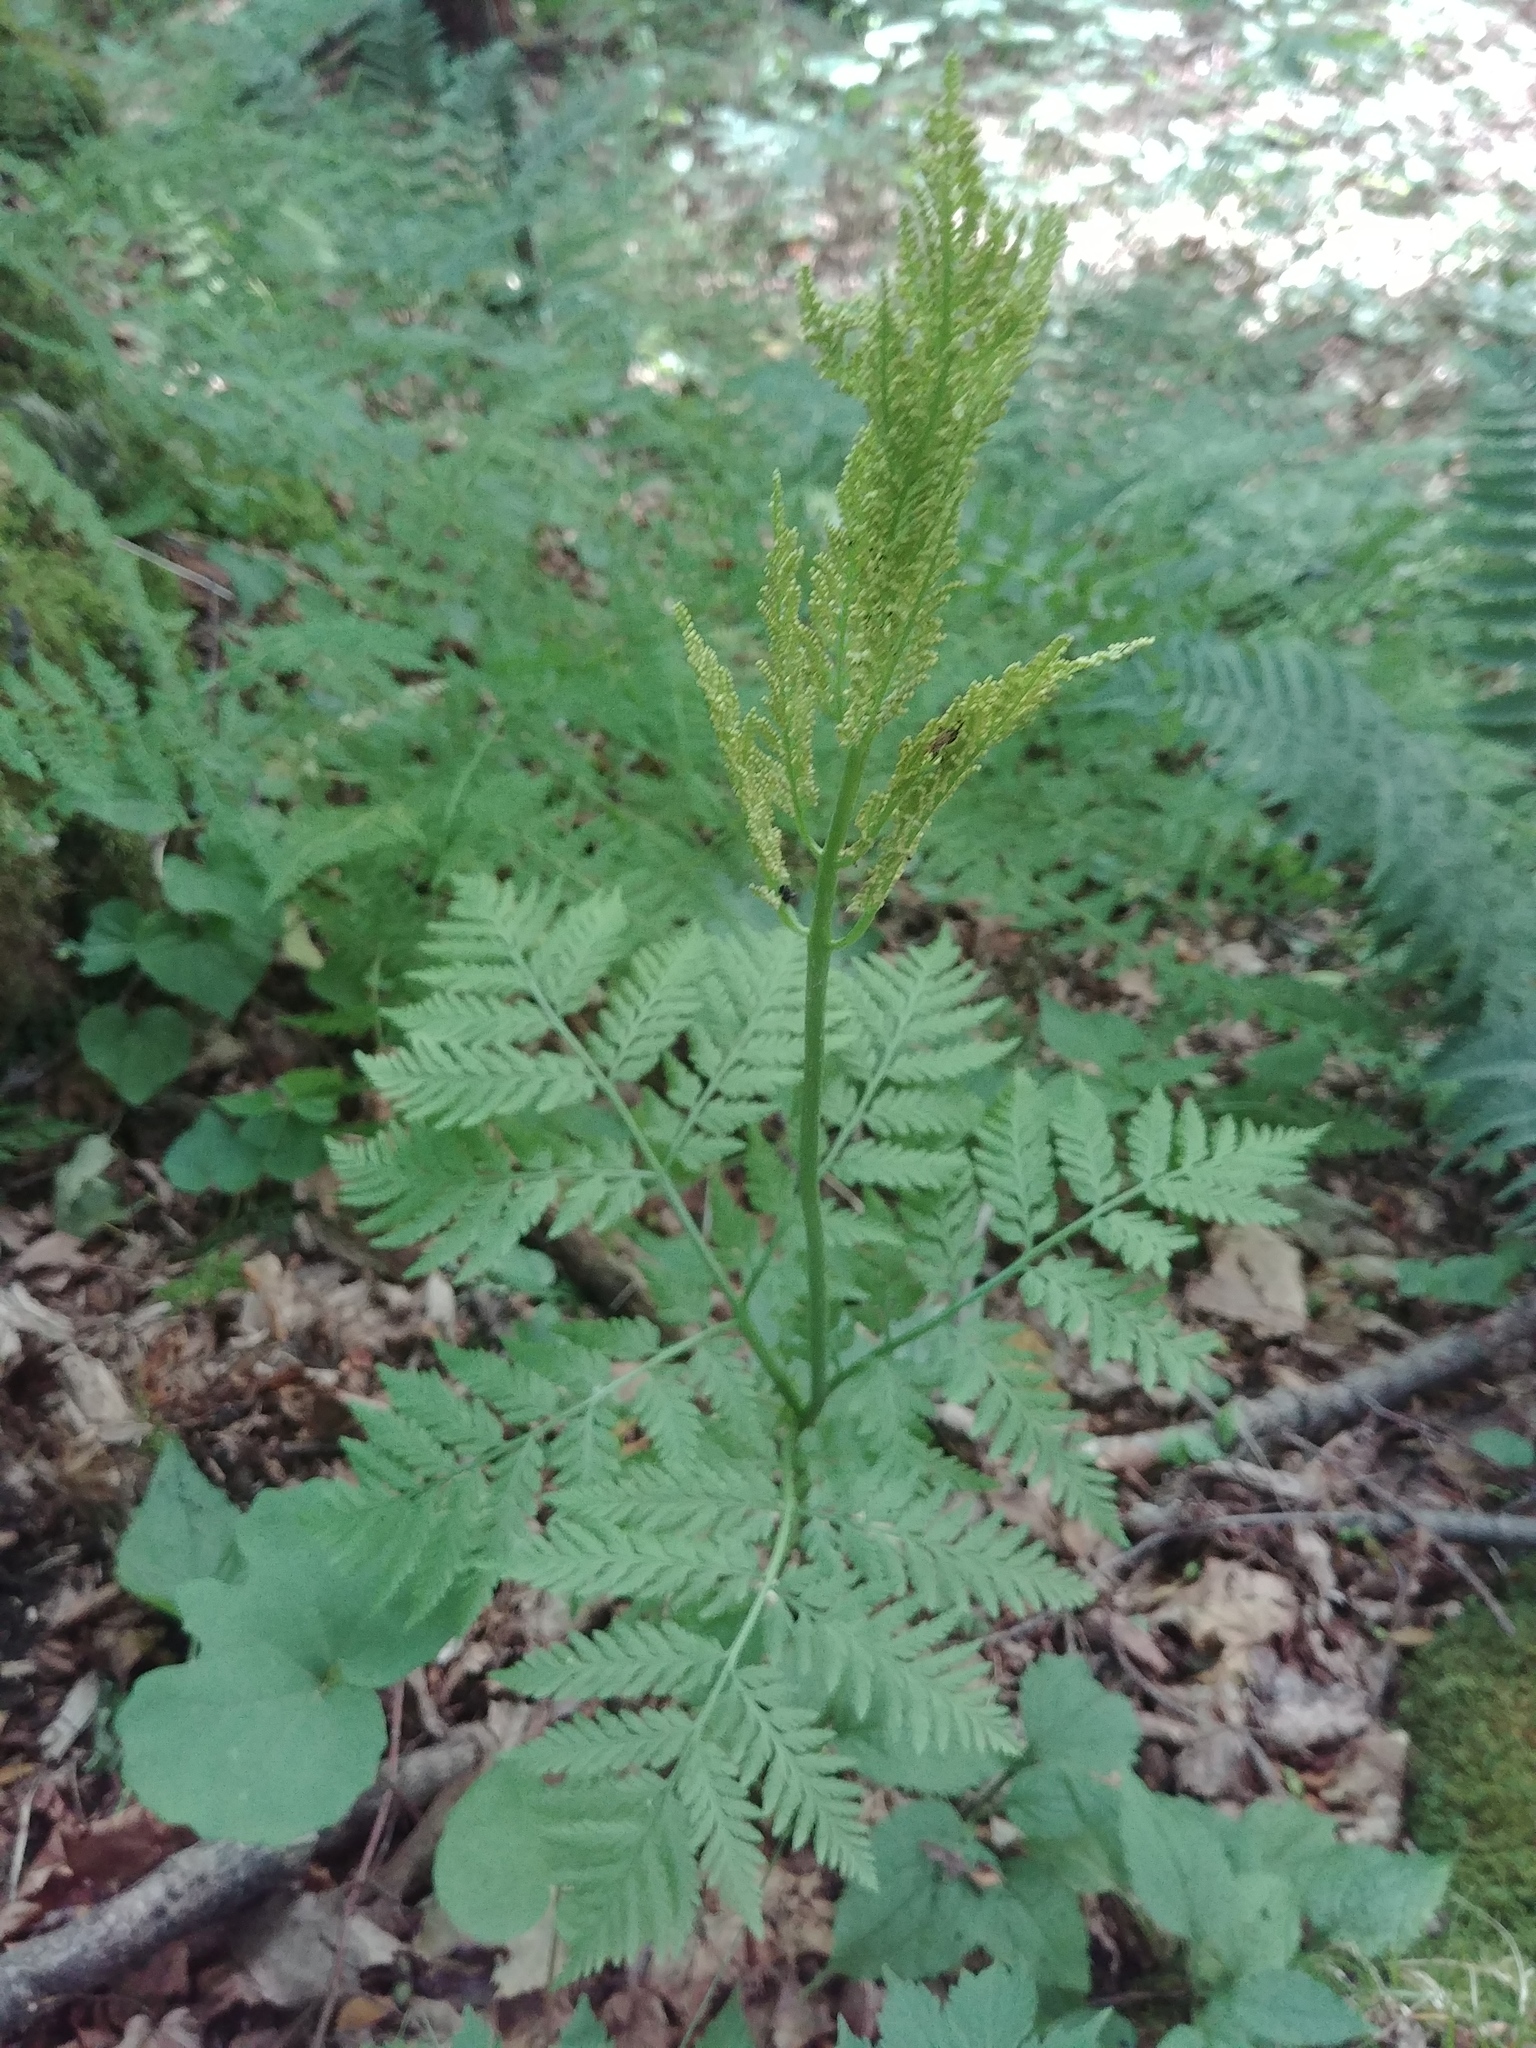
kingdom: Plantae
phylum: Tracheophyta
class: Polypodiopsida
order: Ophioglossales
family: Ophioglossaceae
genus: Botrypus
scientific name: Botrypus virginianus
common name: Common grapefern
